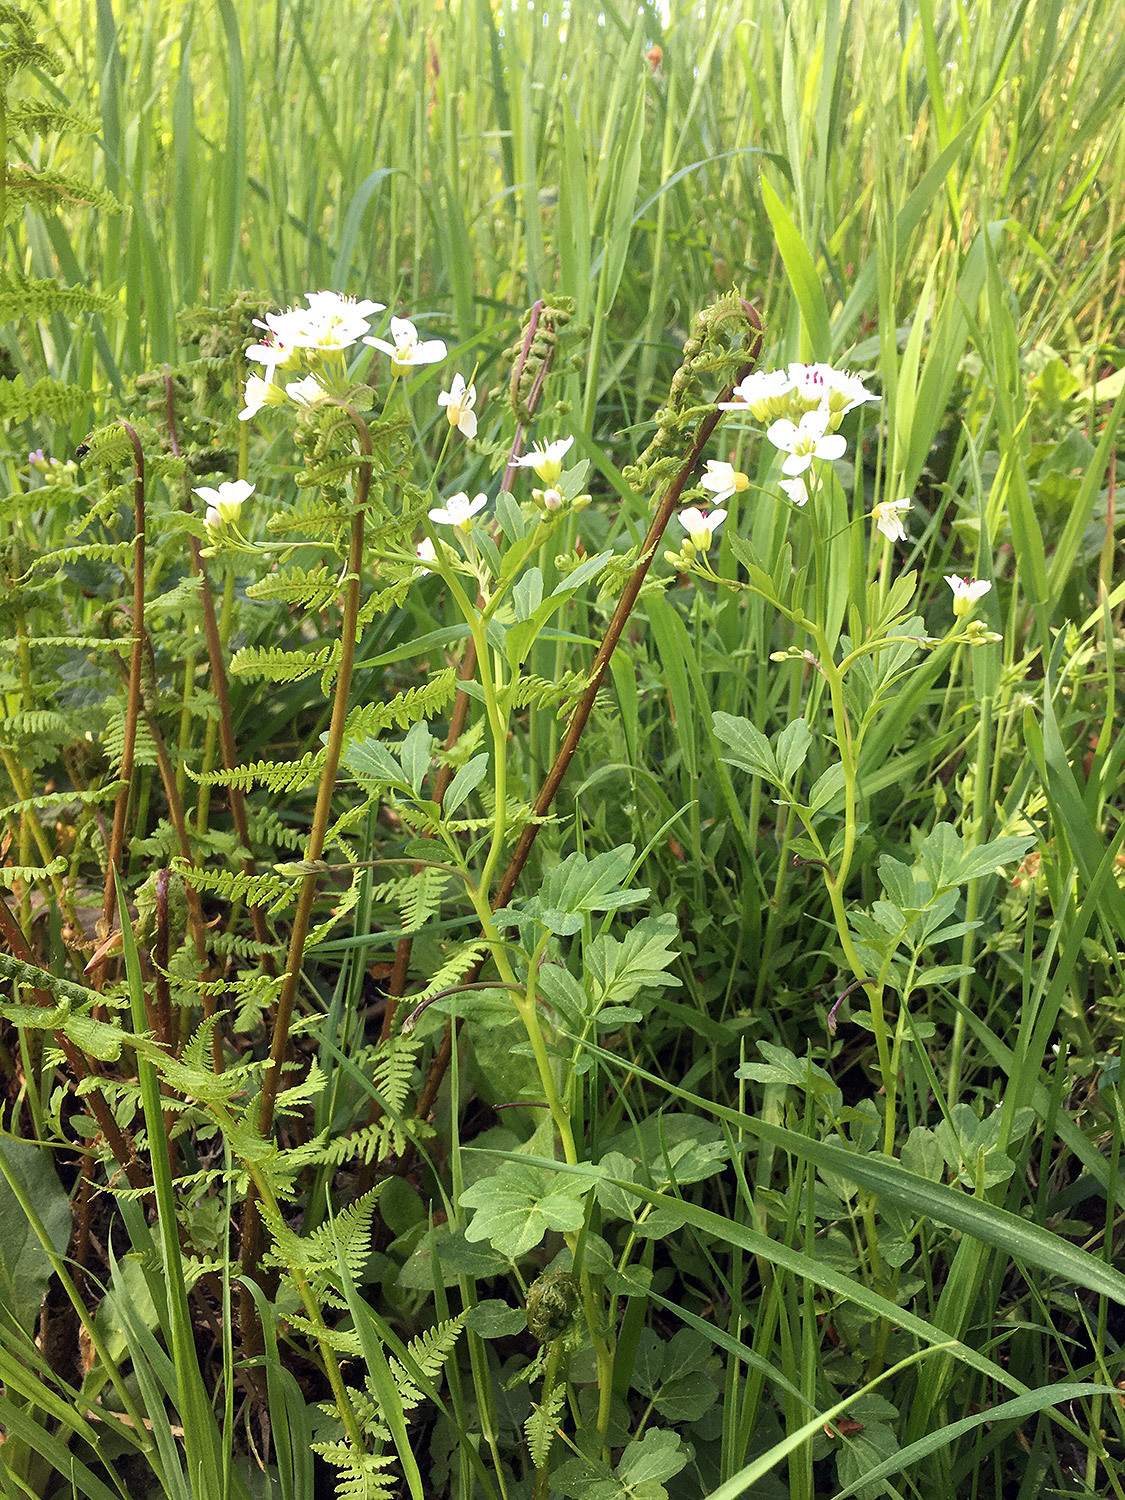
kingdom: Plantae
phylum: Tracheophyta
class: Magnoliopsida
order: Brassicales
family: Brassicaceae
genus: Cardamine
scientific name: Cardamine amara
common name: Large bitter-cress
